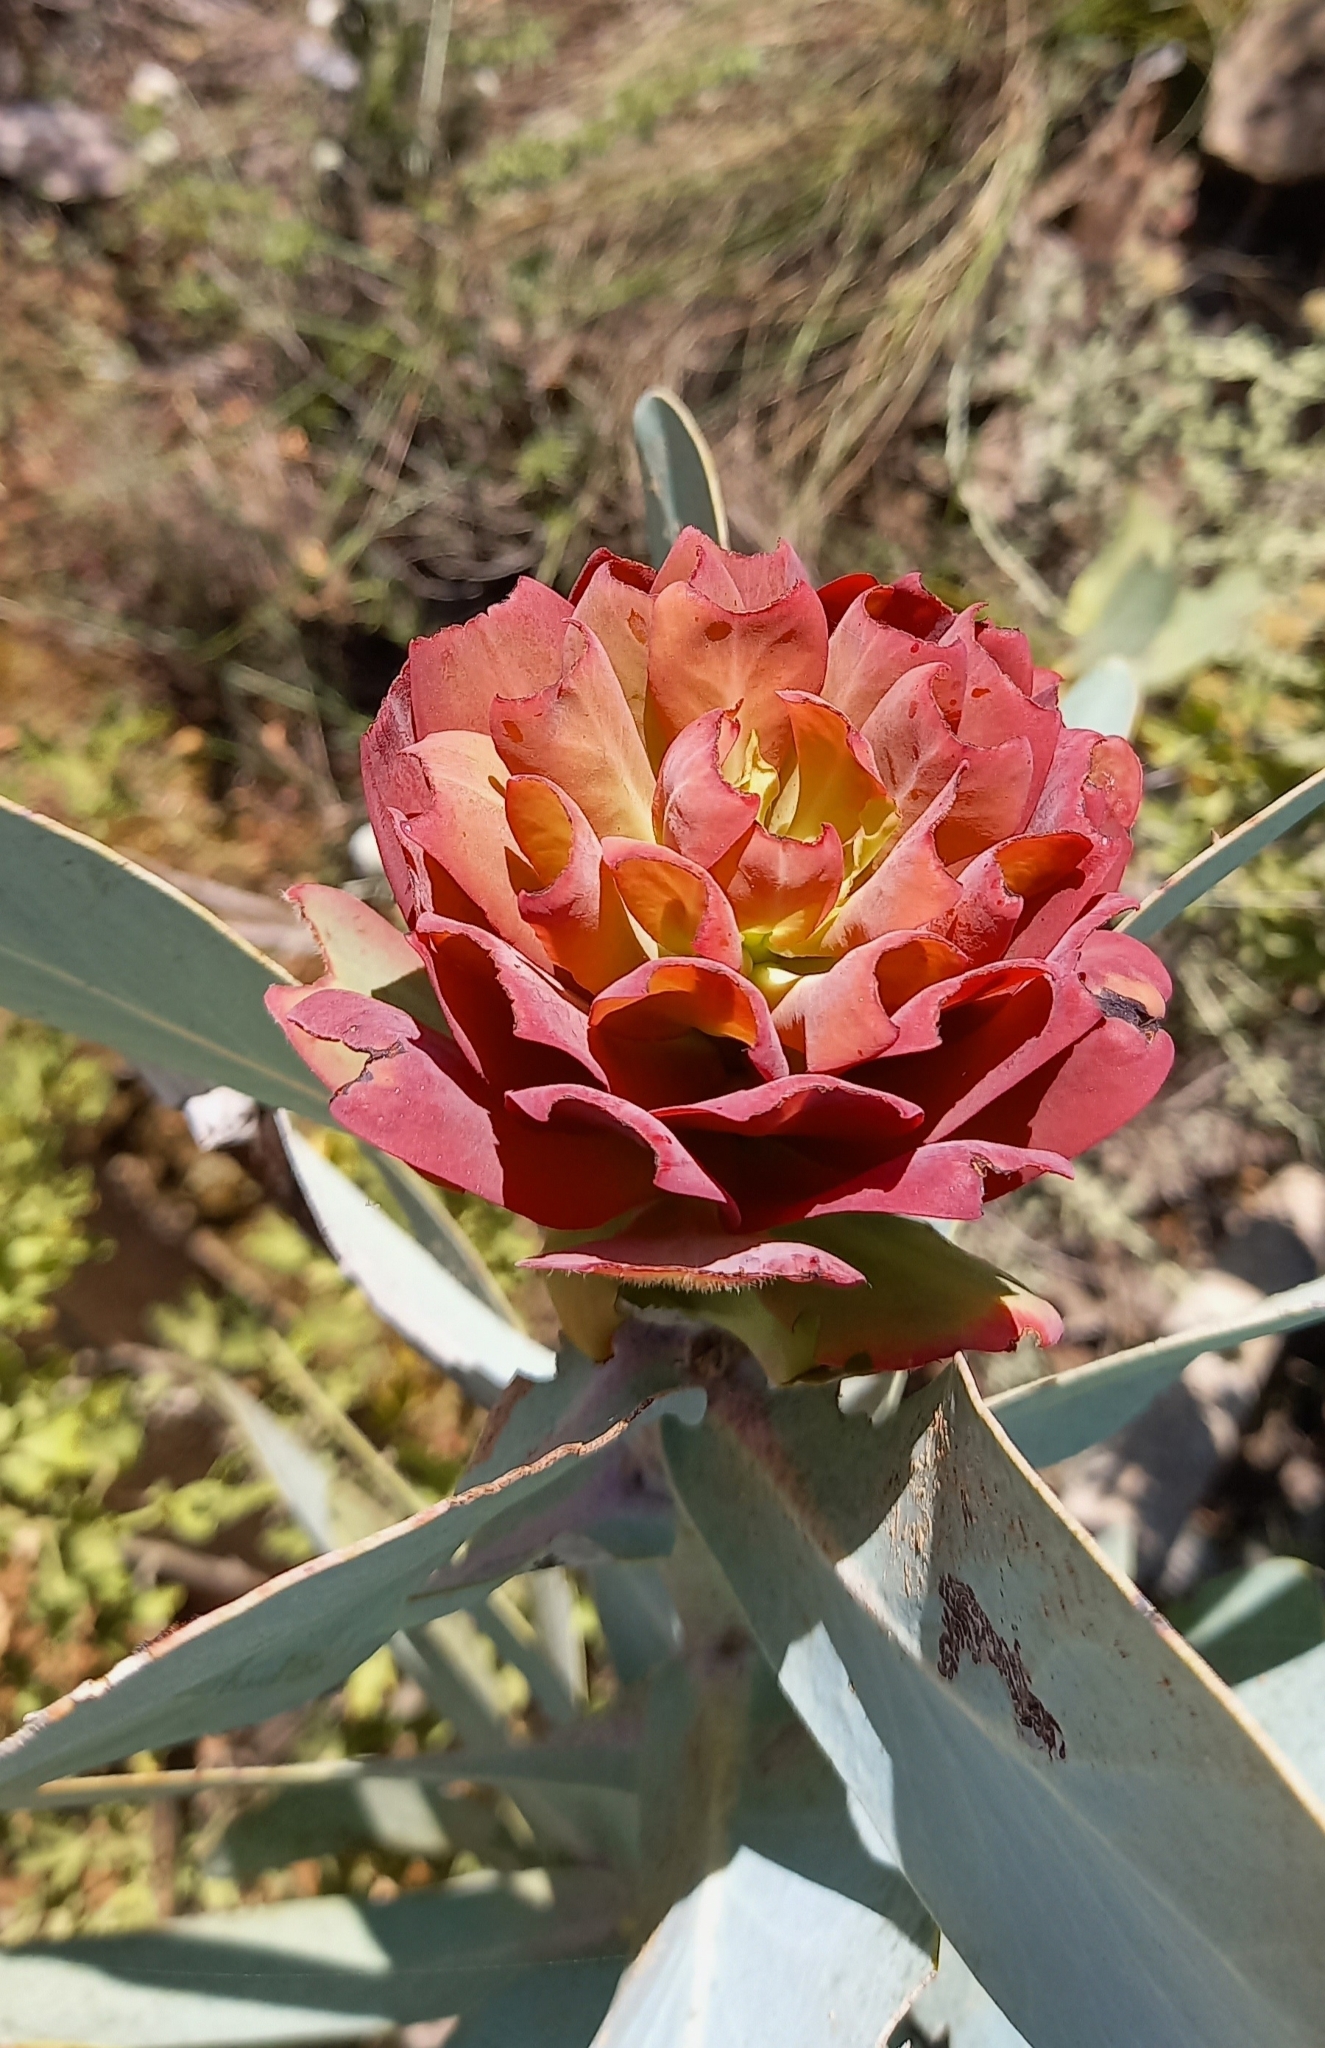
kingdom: Plantae
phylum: Tracheophyta
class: Magnoliopsida
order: Proteales
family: Proteaceae
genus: Protea
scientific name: Protea nitida
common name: Tree protea
